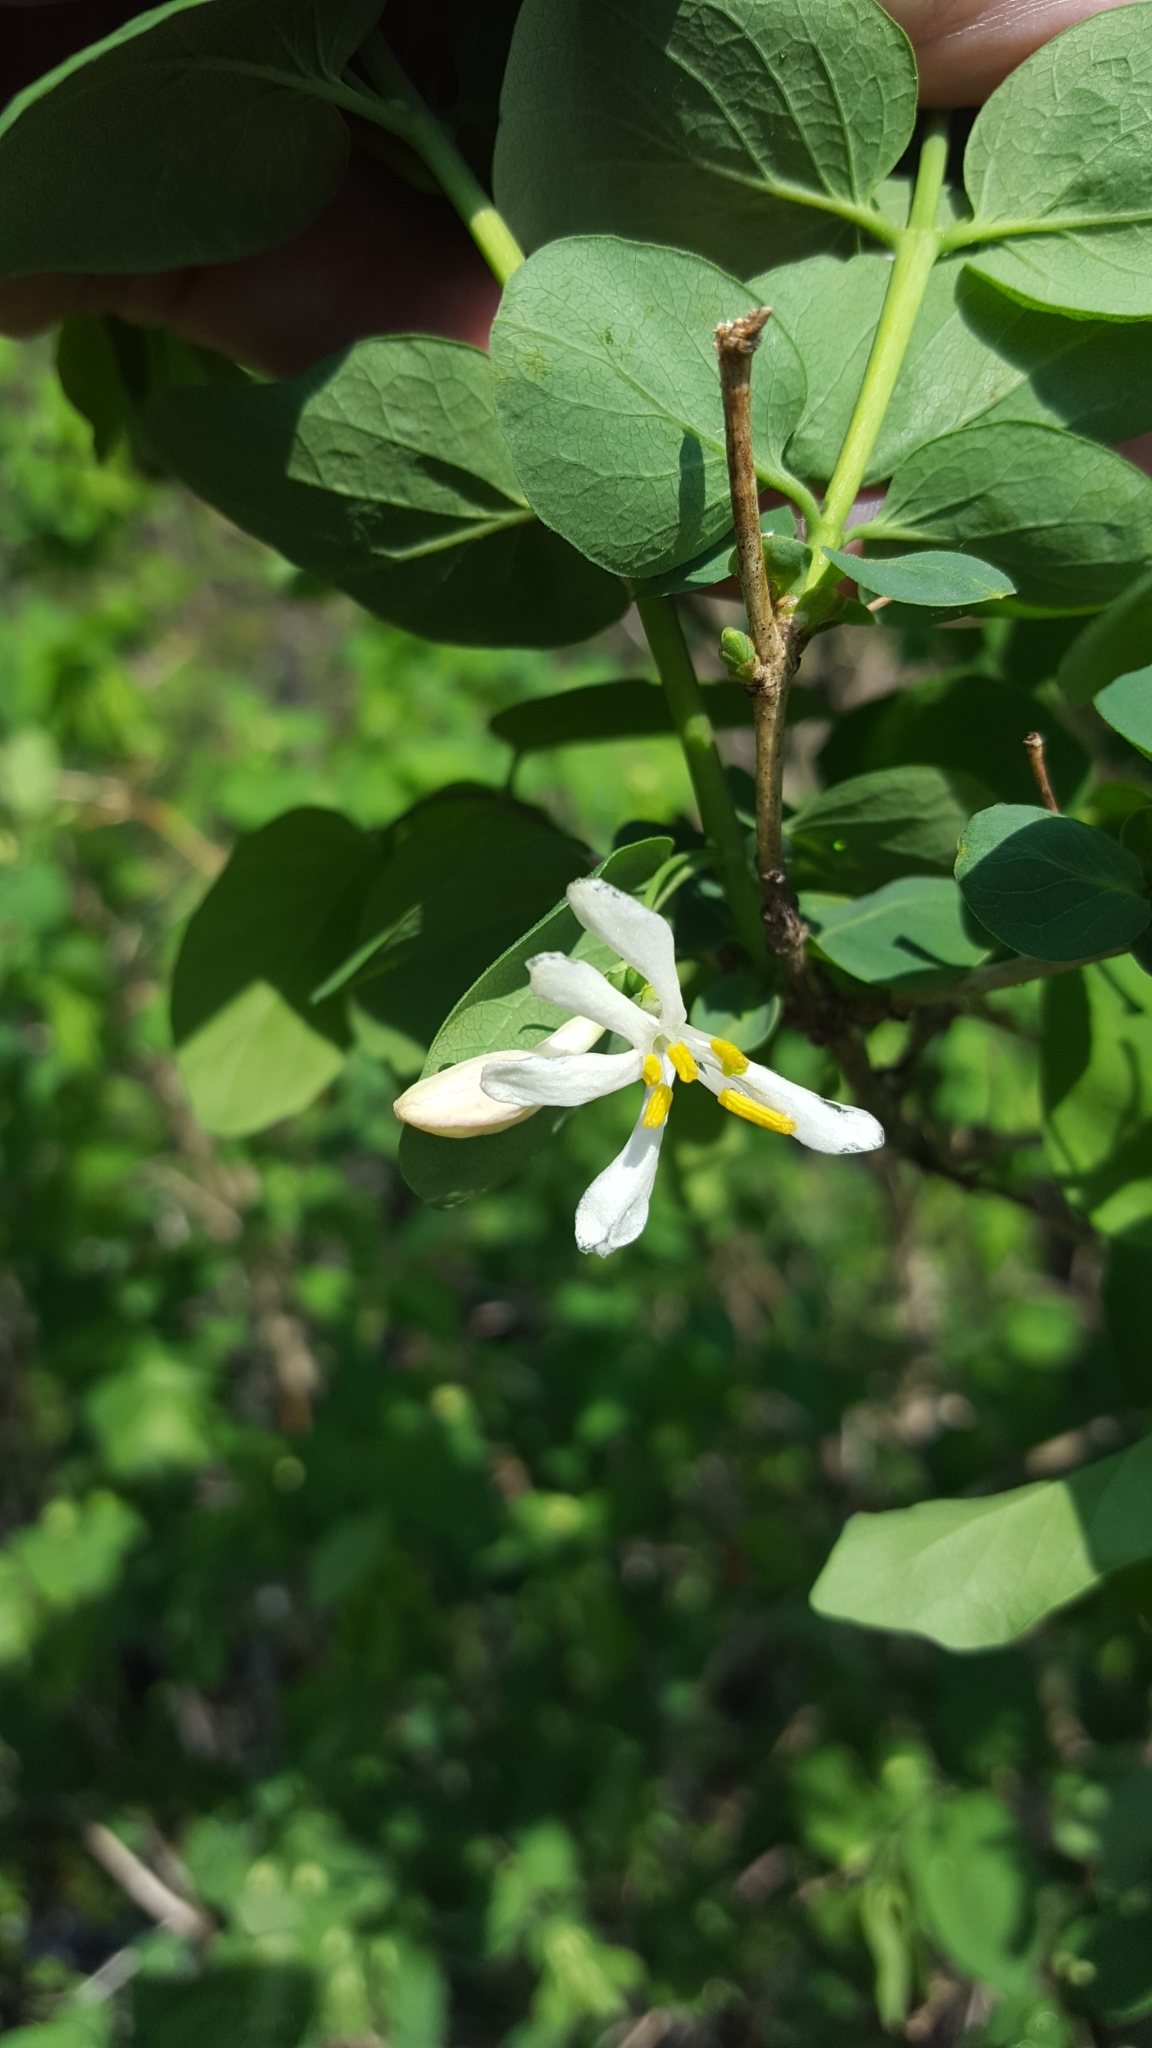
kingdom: Plantae
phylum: Tracheophyta
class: Magnoliopsida
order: Dipsacales
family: Caprifoliaceae
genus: Lonicera
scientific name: Lonicera tatarica
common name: Tatarian honeysuckle
